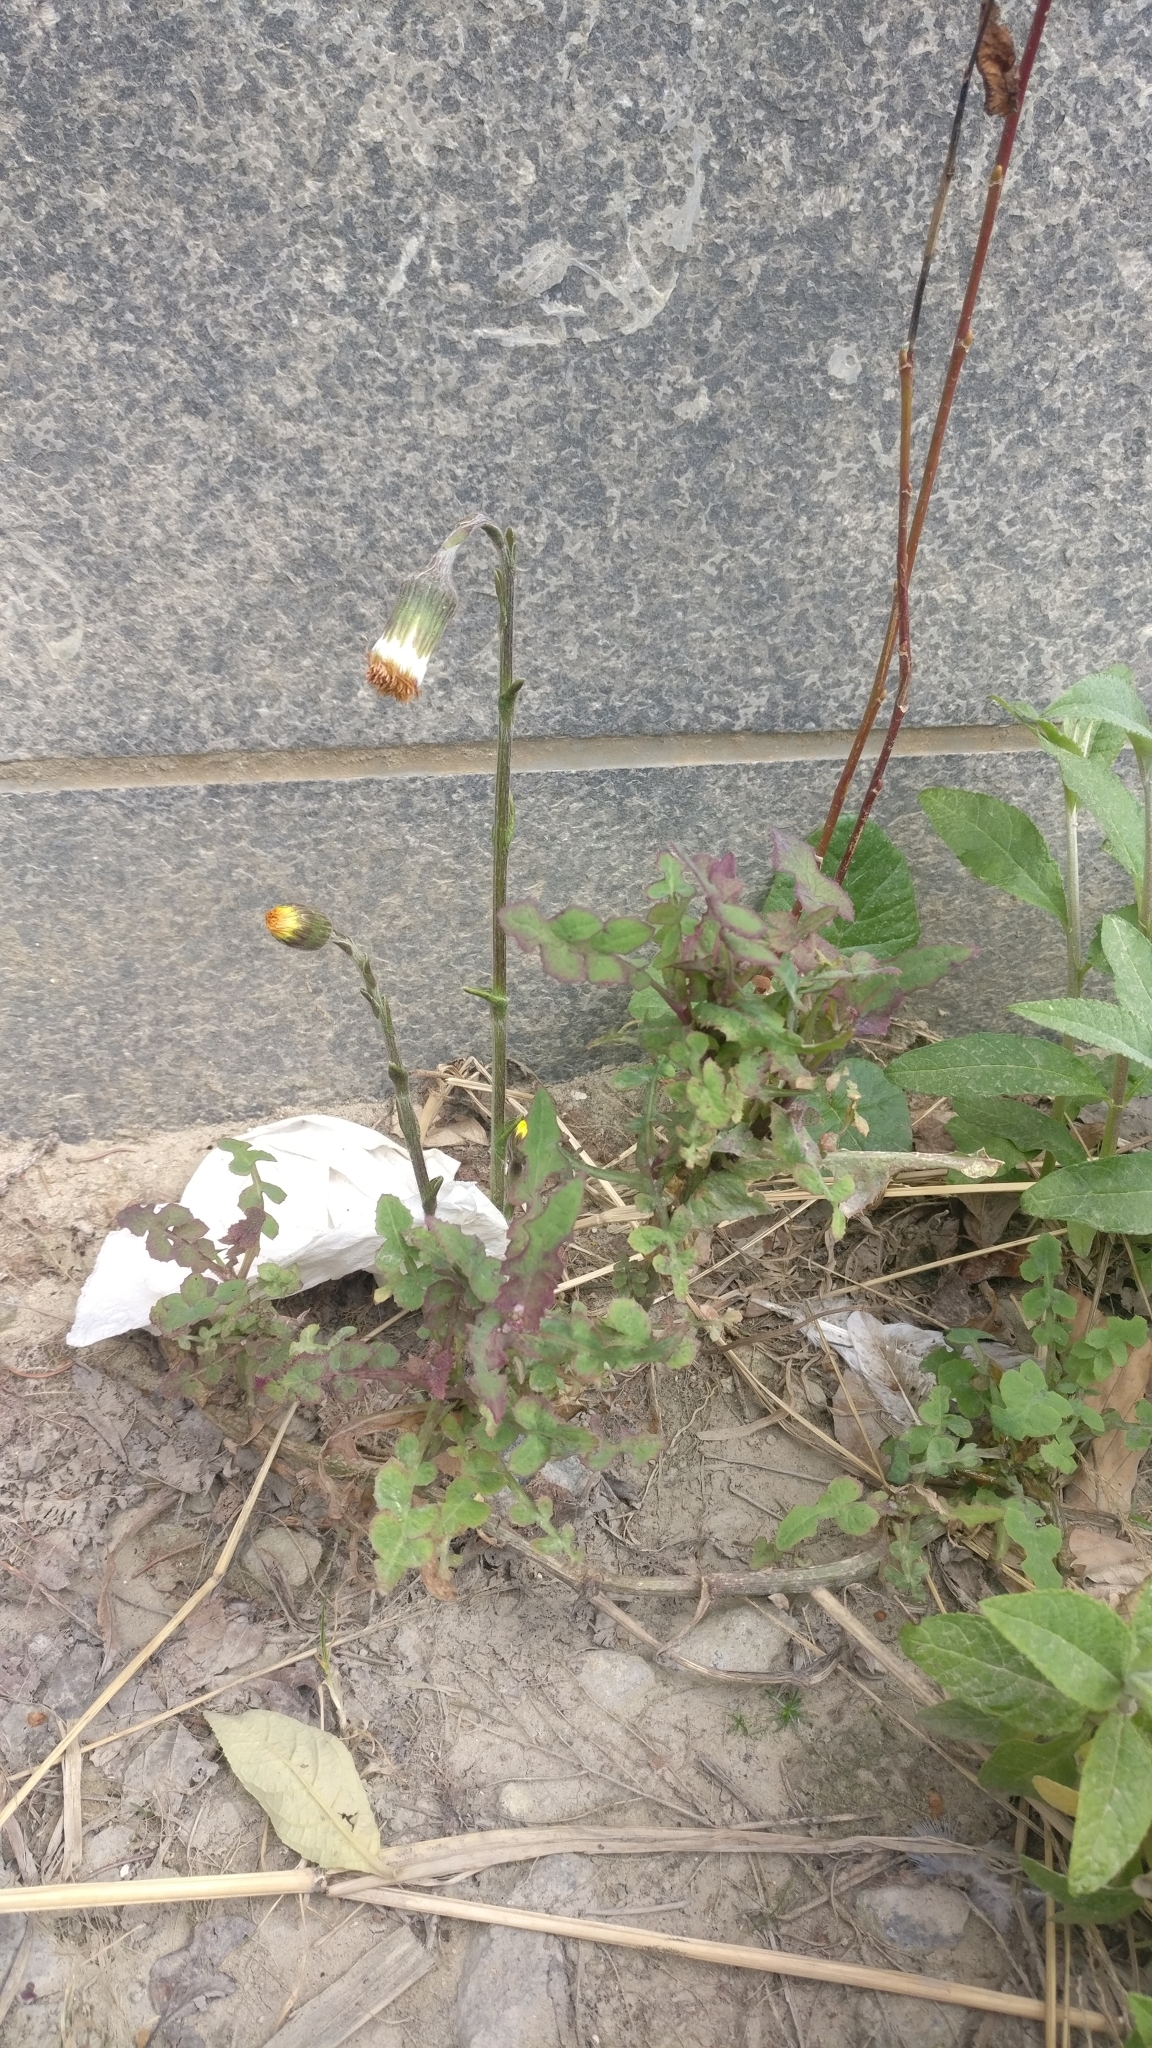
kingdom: Plantae
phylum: Tracheophyta
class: Magnoliopsida
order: Asterales
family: Asteraceae
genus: Tussilago
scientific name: Tussilago farfara
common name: Coltsfoot
